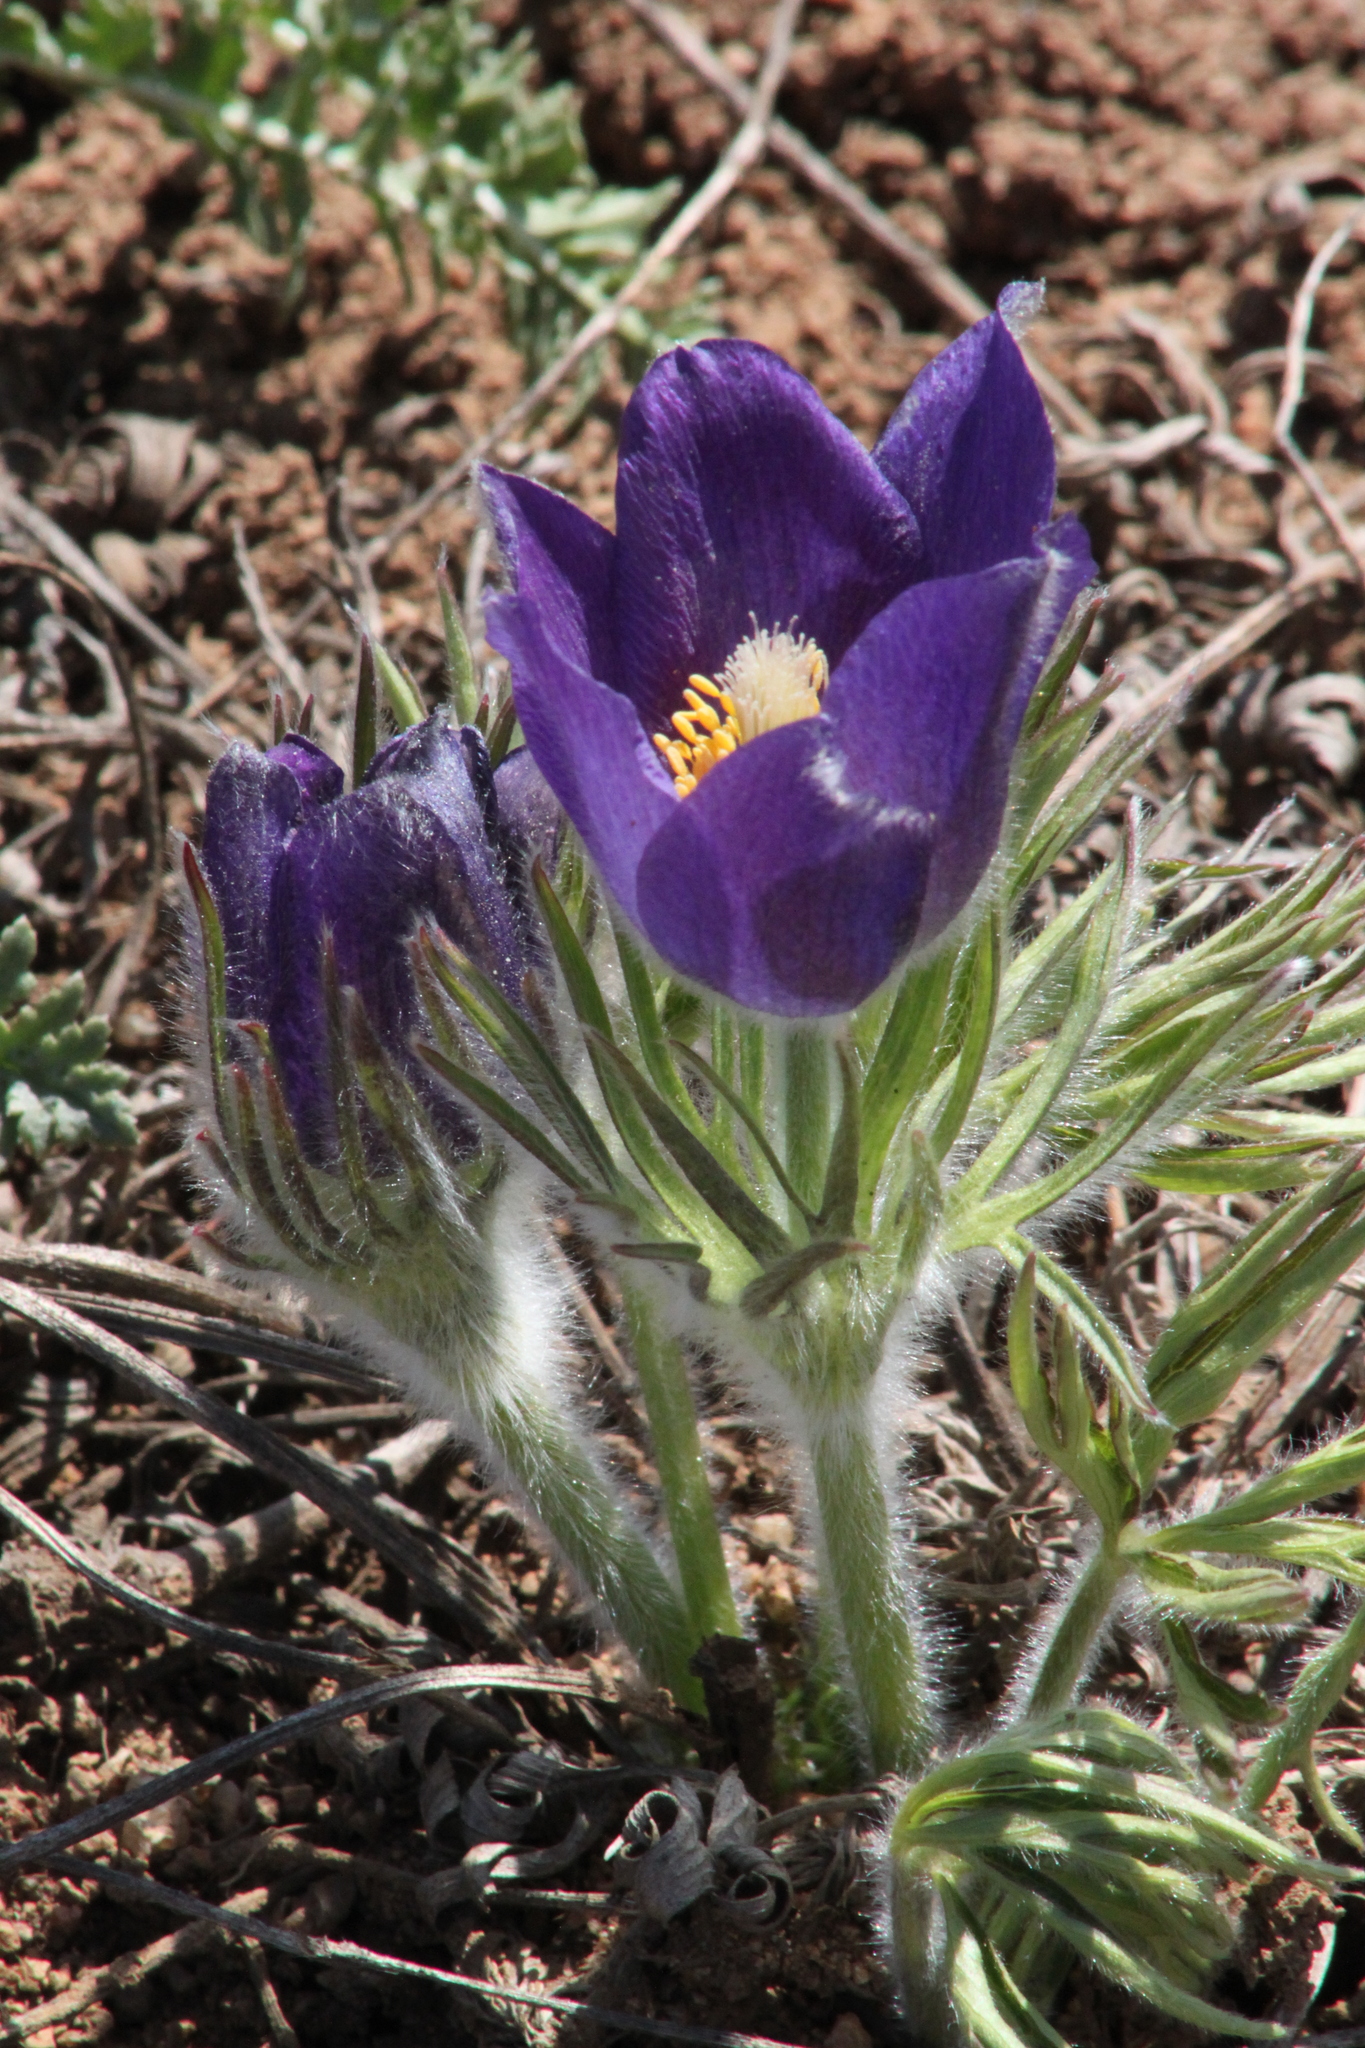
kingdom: Plantae
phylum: Tracheophyta
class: Magnoliopsida
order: Ranunculales
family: Ranunculaceae
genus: Pulsatilla
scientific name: Pulsatilla patens
